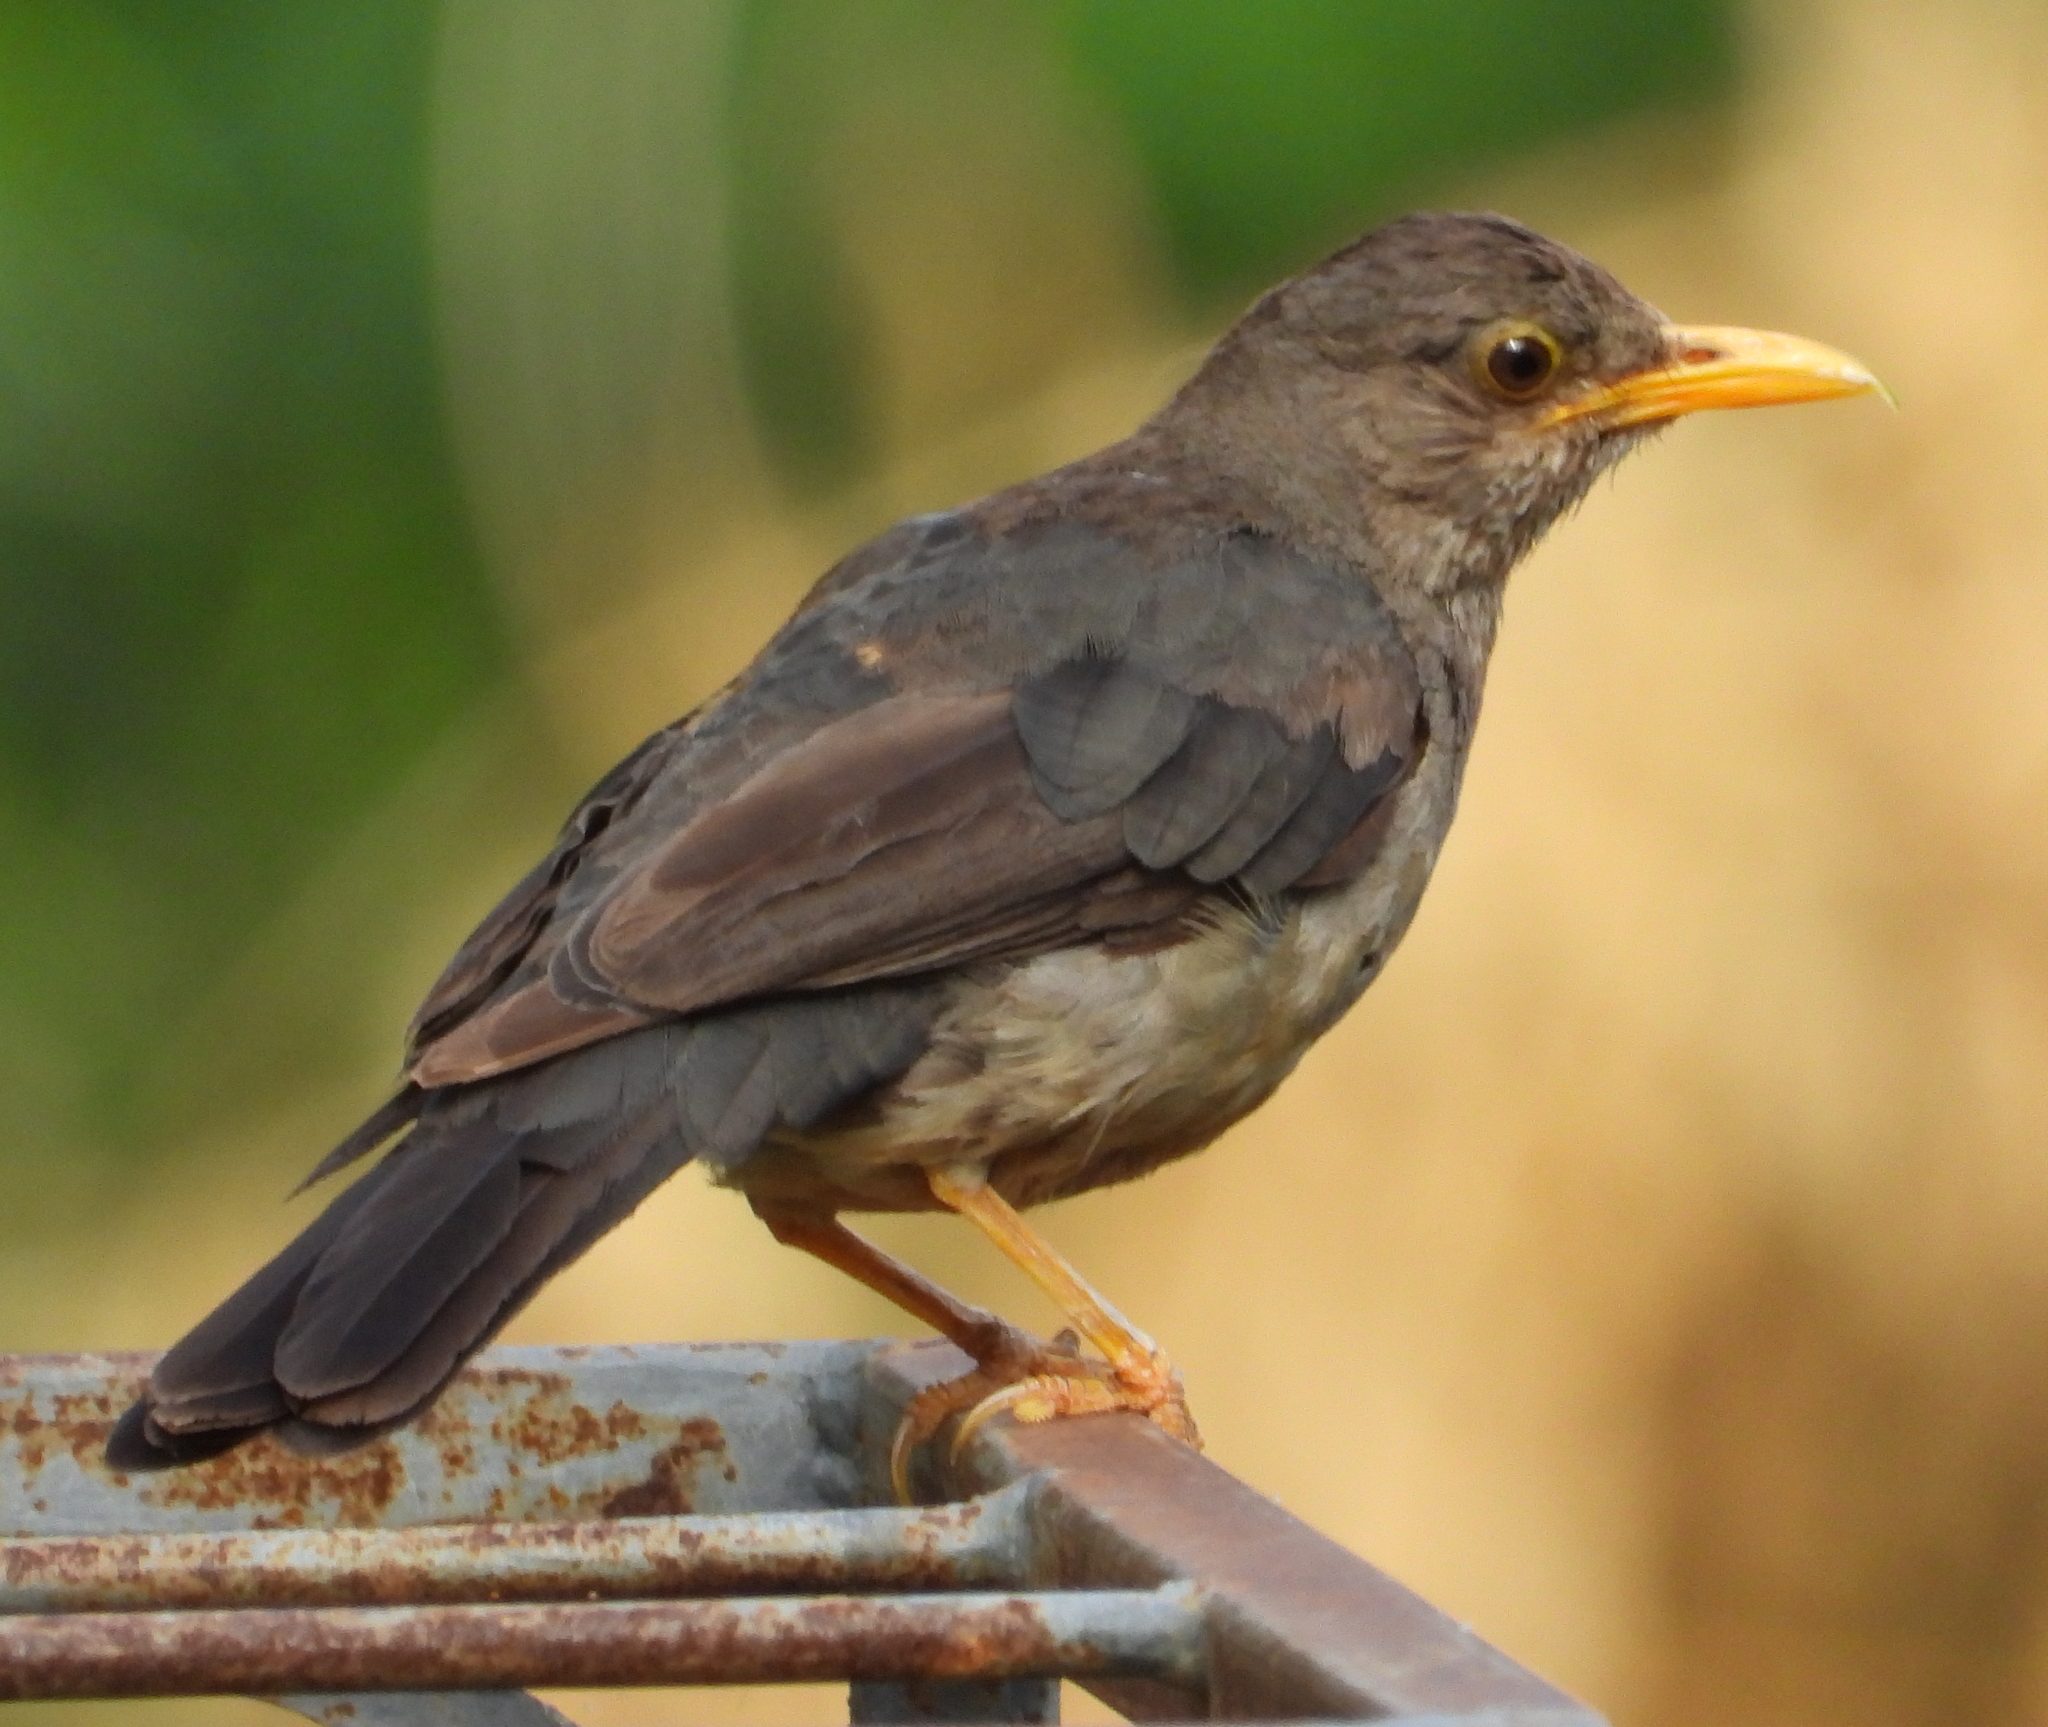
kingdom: Animalia
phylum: Chordata
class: Aves
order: Passeriformes
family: Turdidae
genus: Turdus
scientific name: Turdus smithi
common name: Karoo thrush
